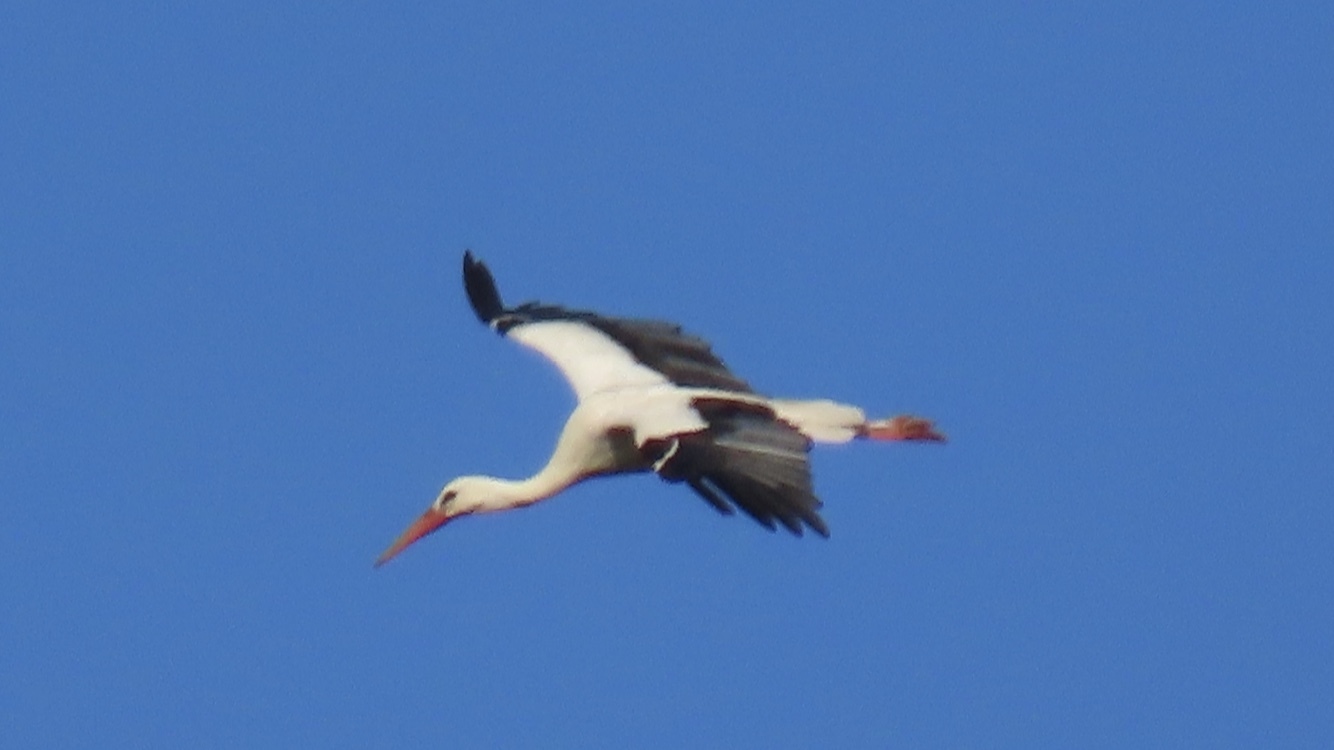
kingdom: Animalia
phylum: Chordata
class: Aves
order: Ciconiiformes
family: Ciconiidae
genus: Ciconia
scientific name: Ciconia ciconia
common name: White stork
